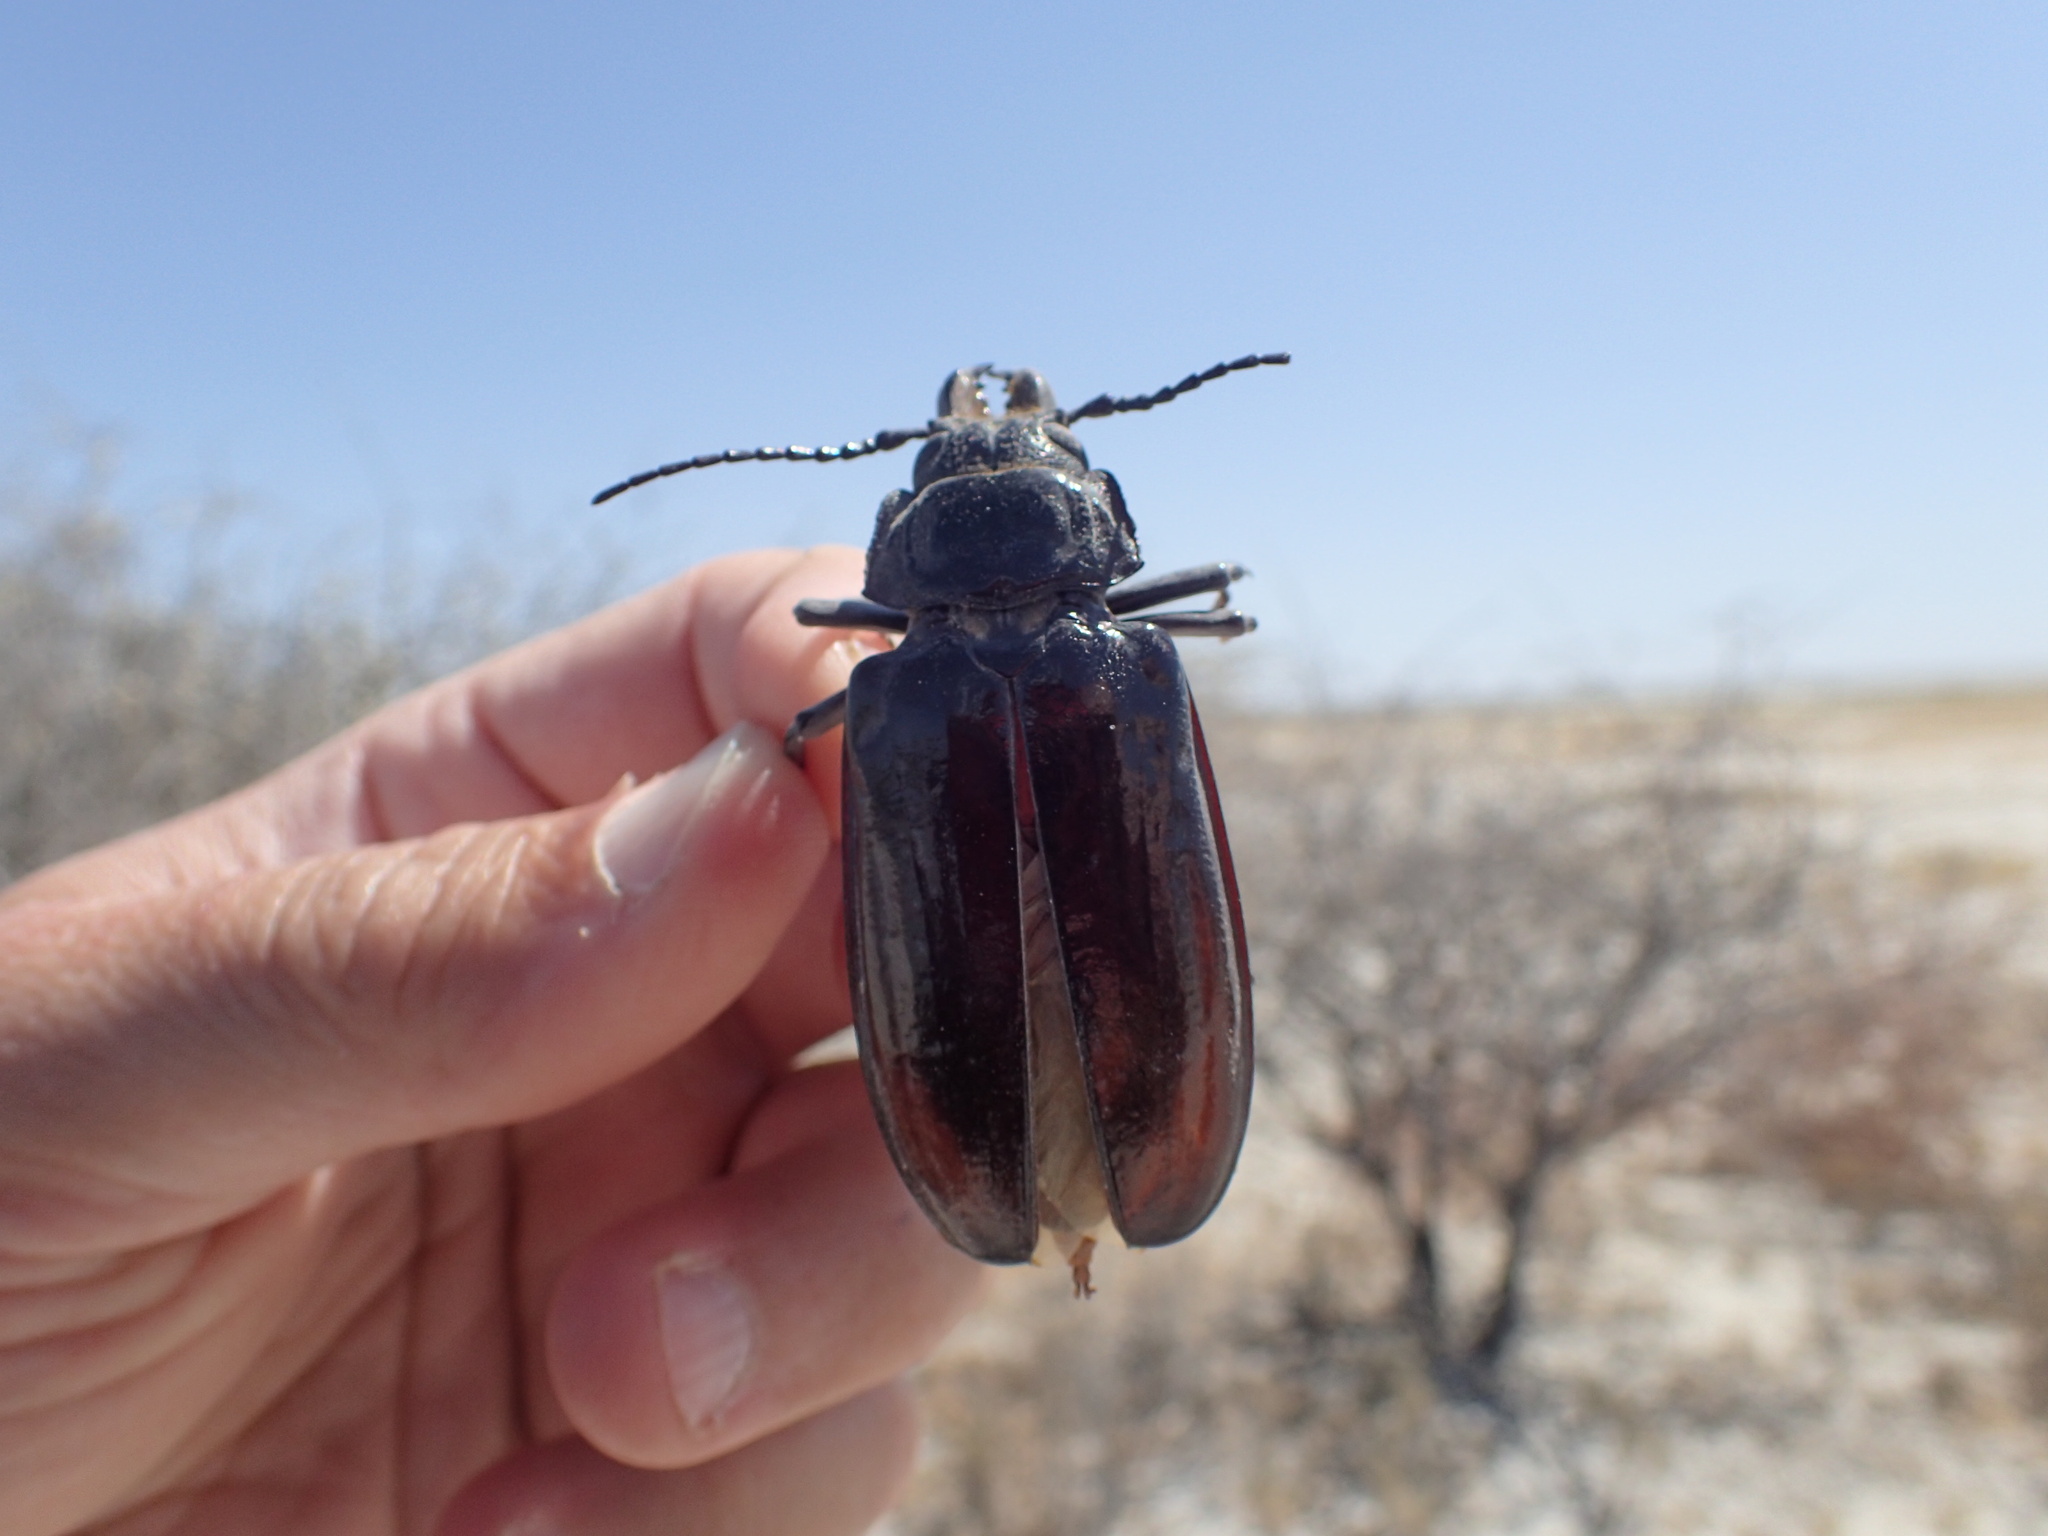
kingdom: Animalia
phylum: Arthropoda
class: Insecta
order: Coleoptera
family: Cerambycidae
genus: Mallodon
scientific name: Mallodon downesii
